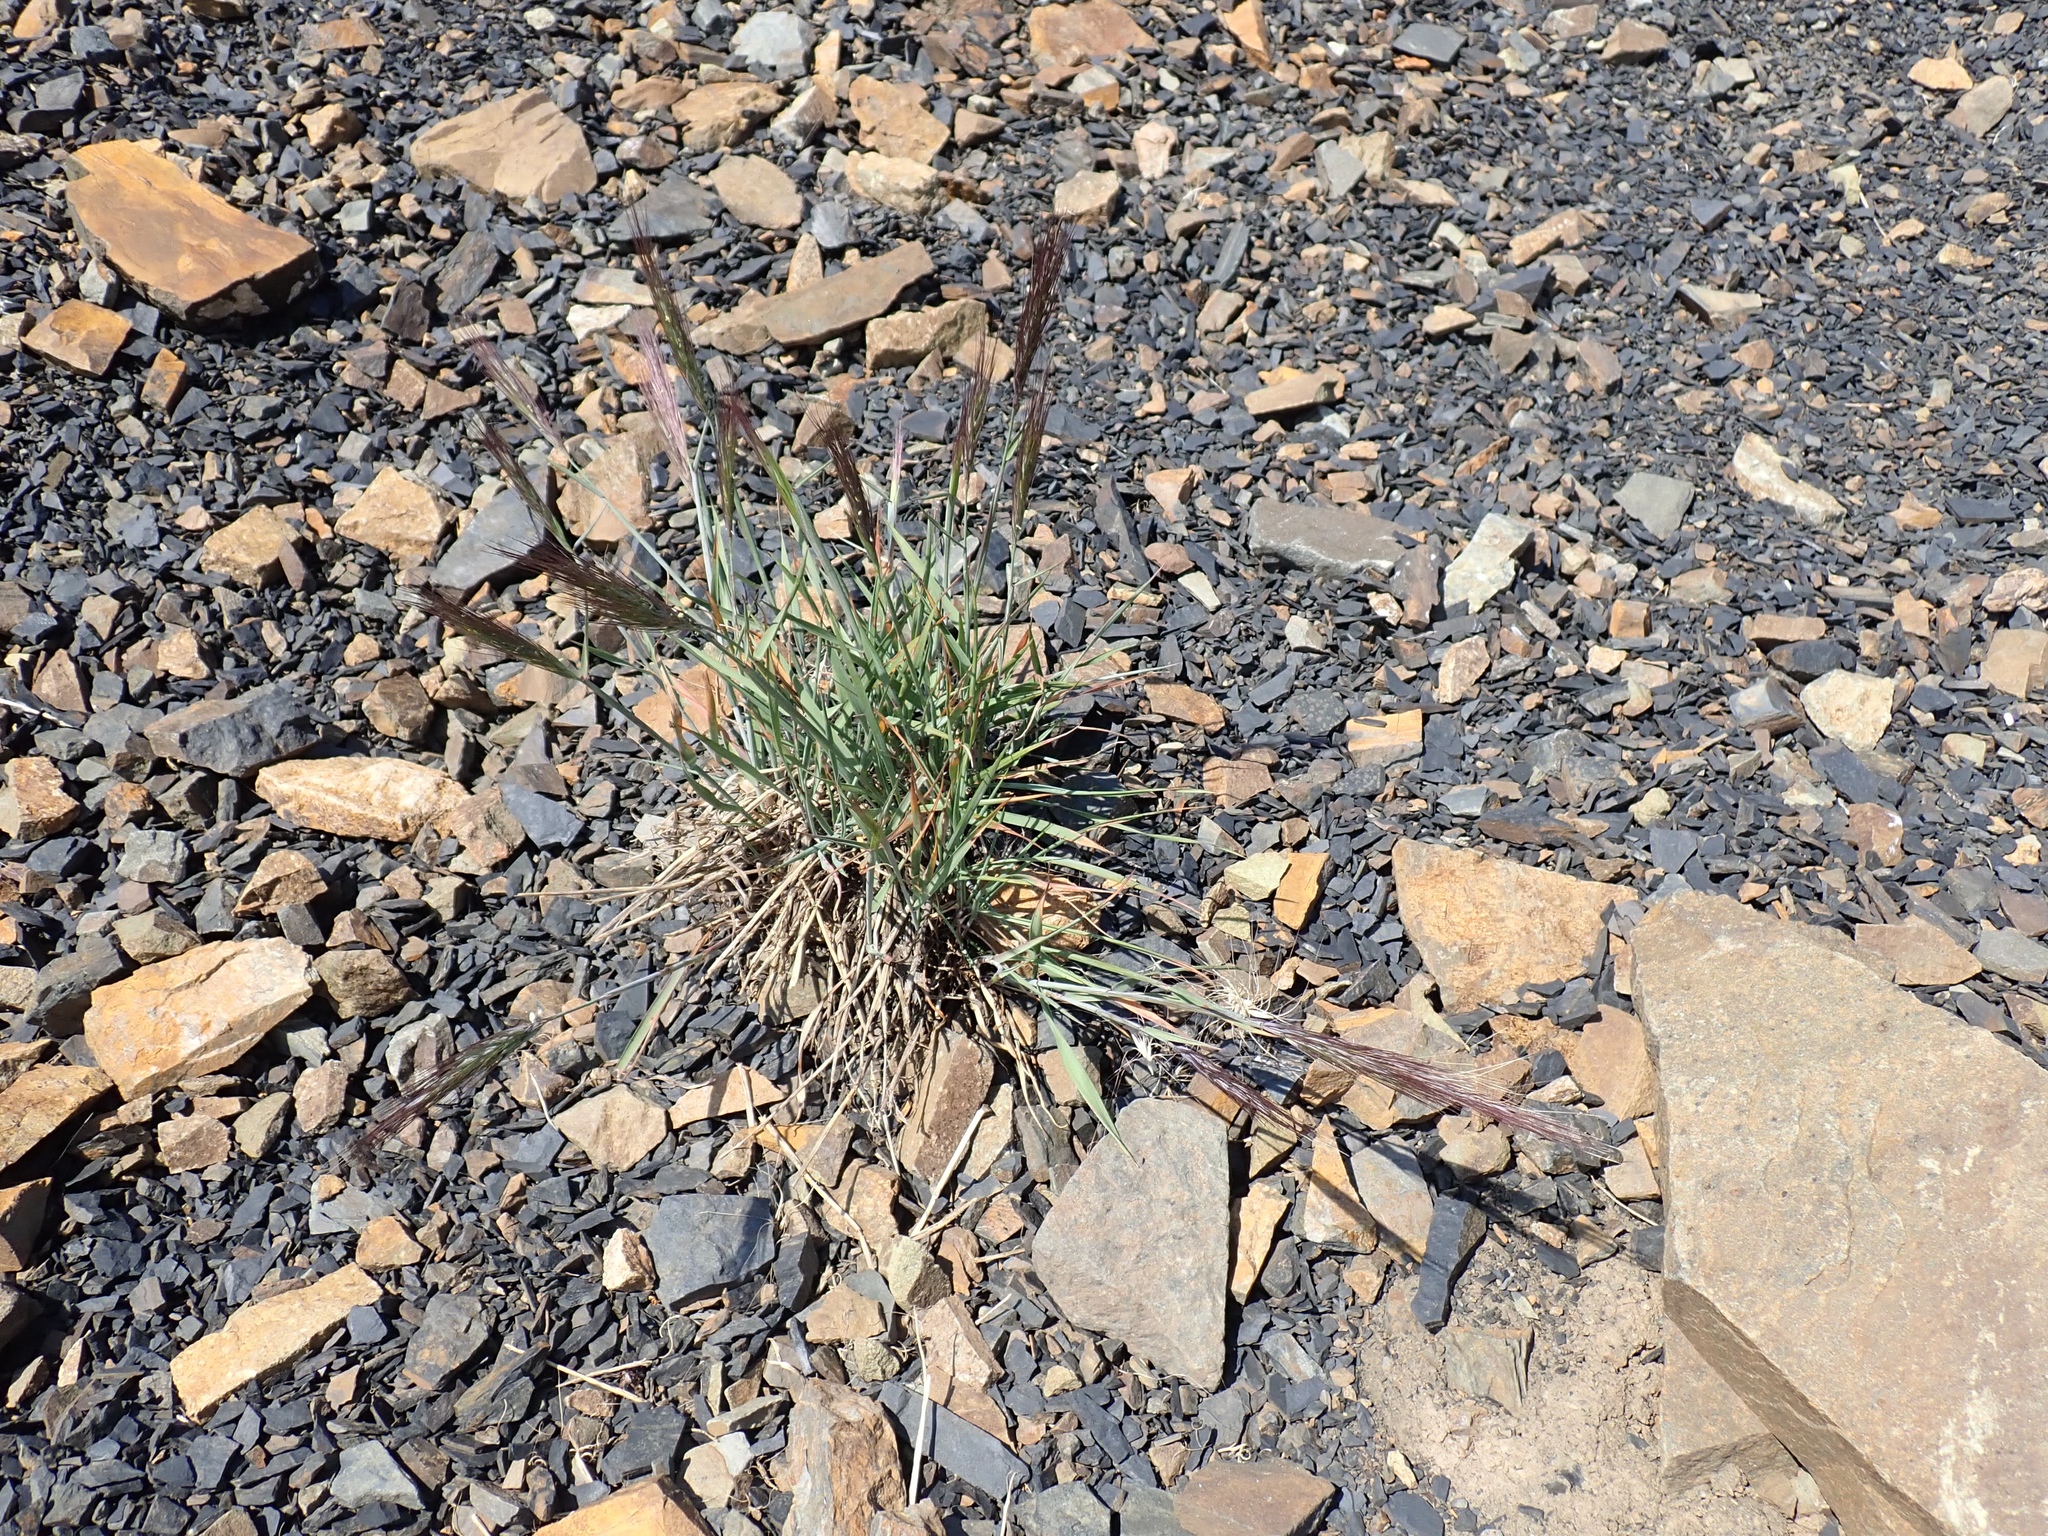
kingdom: Plantae
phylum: Tracheophyta
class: Liliopsida
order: Poales
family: Poaceae
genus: Elymus
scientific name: Elymus elymoides
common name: Bottlebrush squirreltail
